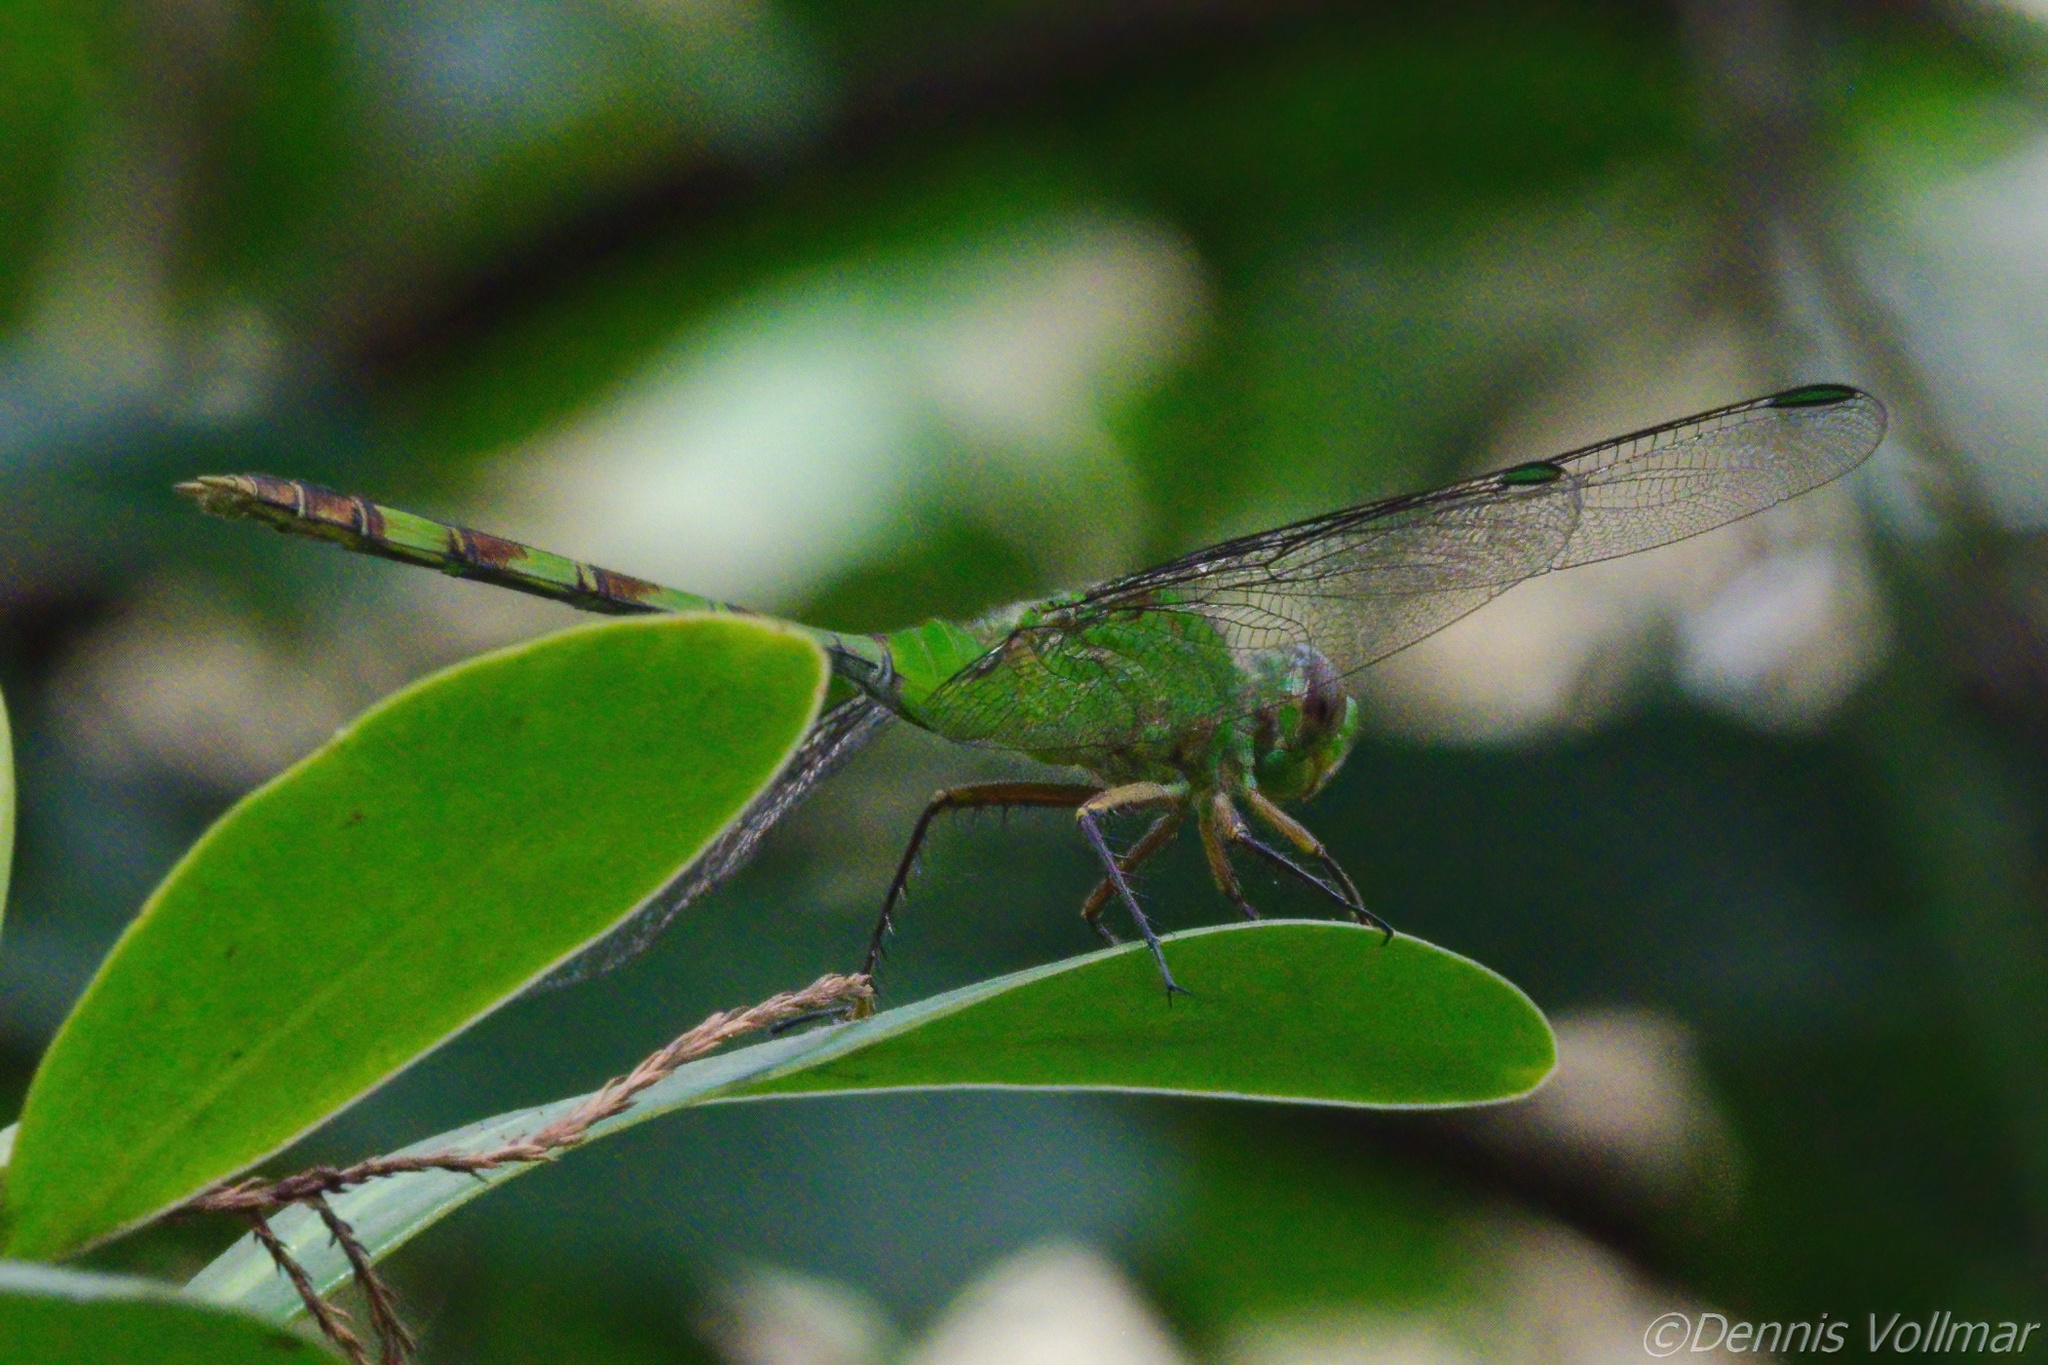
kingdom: Animalia
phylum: Arthropoda
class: Insecta
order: Odonata
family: Libellulidae
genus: Erythemis
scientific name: Erythemis vesiculosa
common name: Great pondhawk
